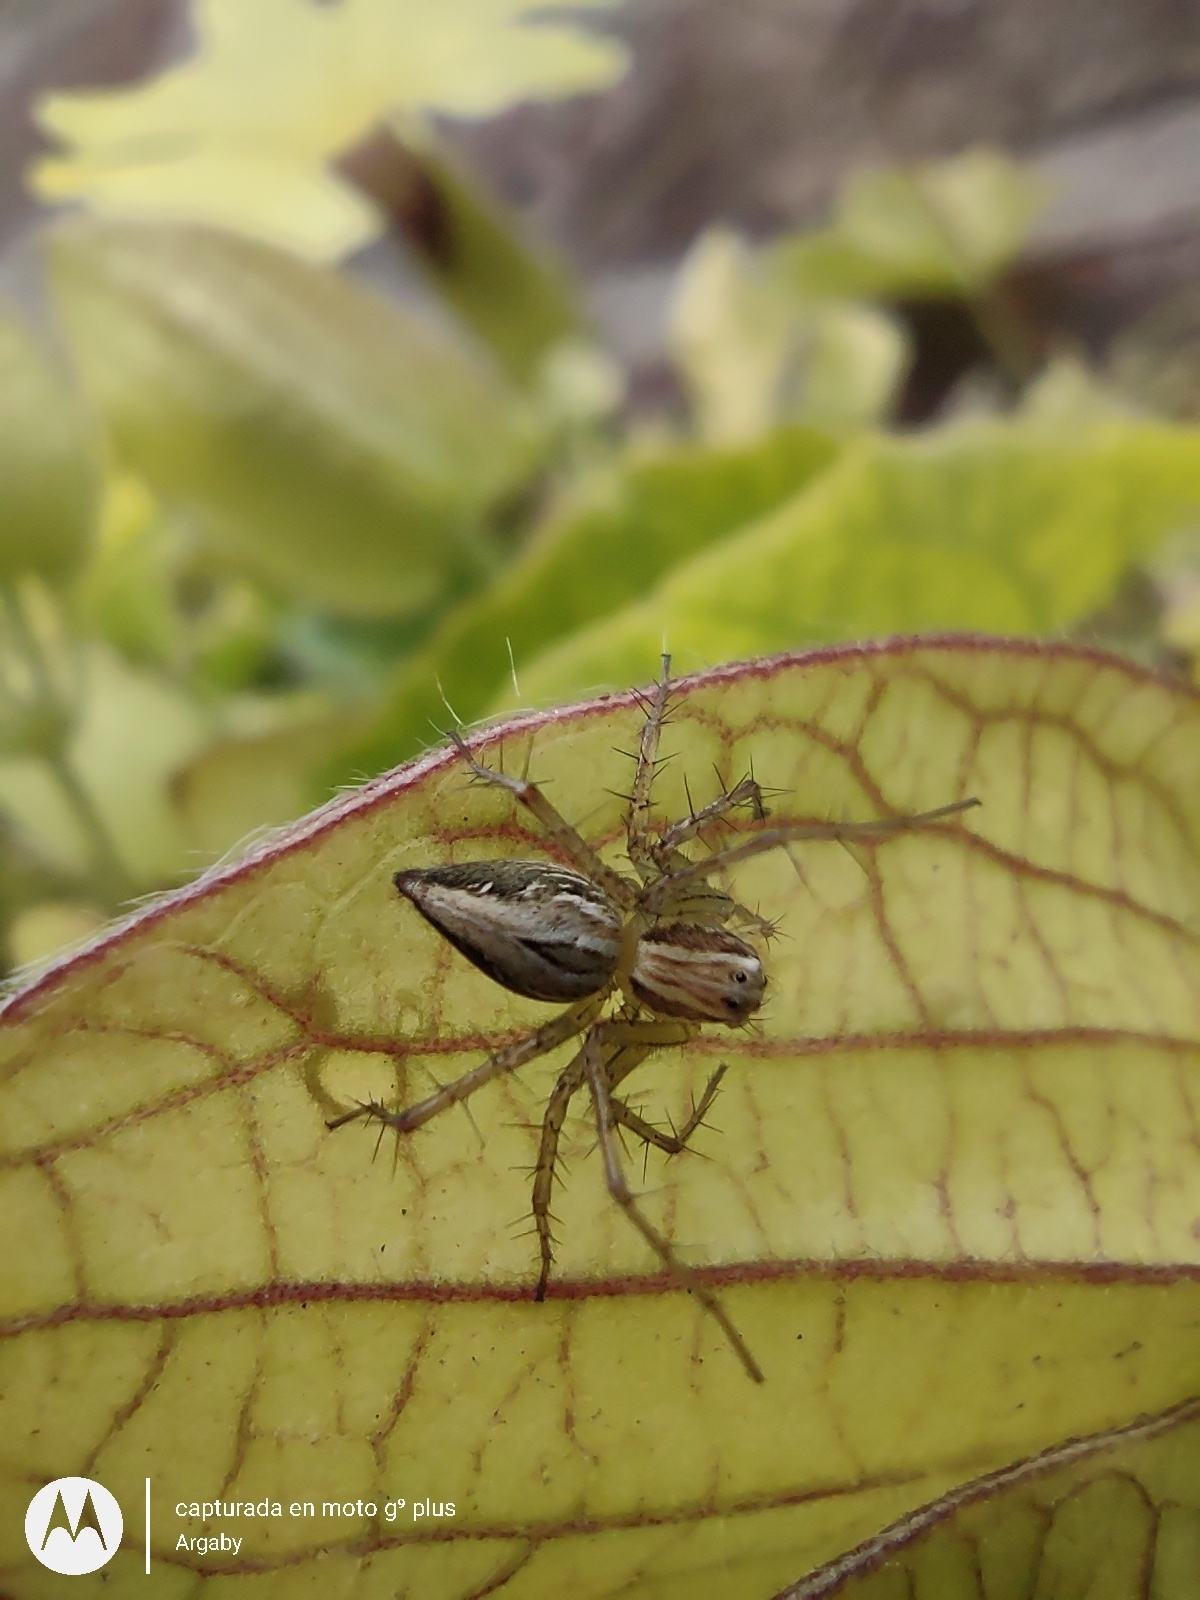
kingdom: Animalia
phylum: Arthropoda
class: Arachnida
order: Araneae
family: Oxyopidae
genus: Oxyopes
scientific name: Oxyopes salticus
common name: Lynx spiders
